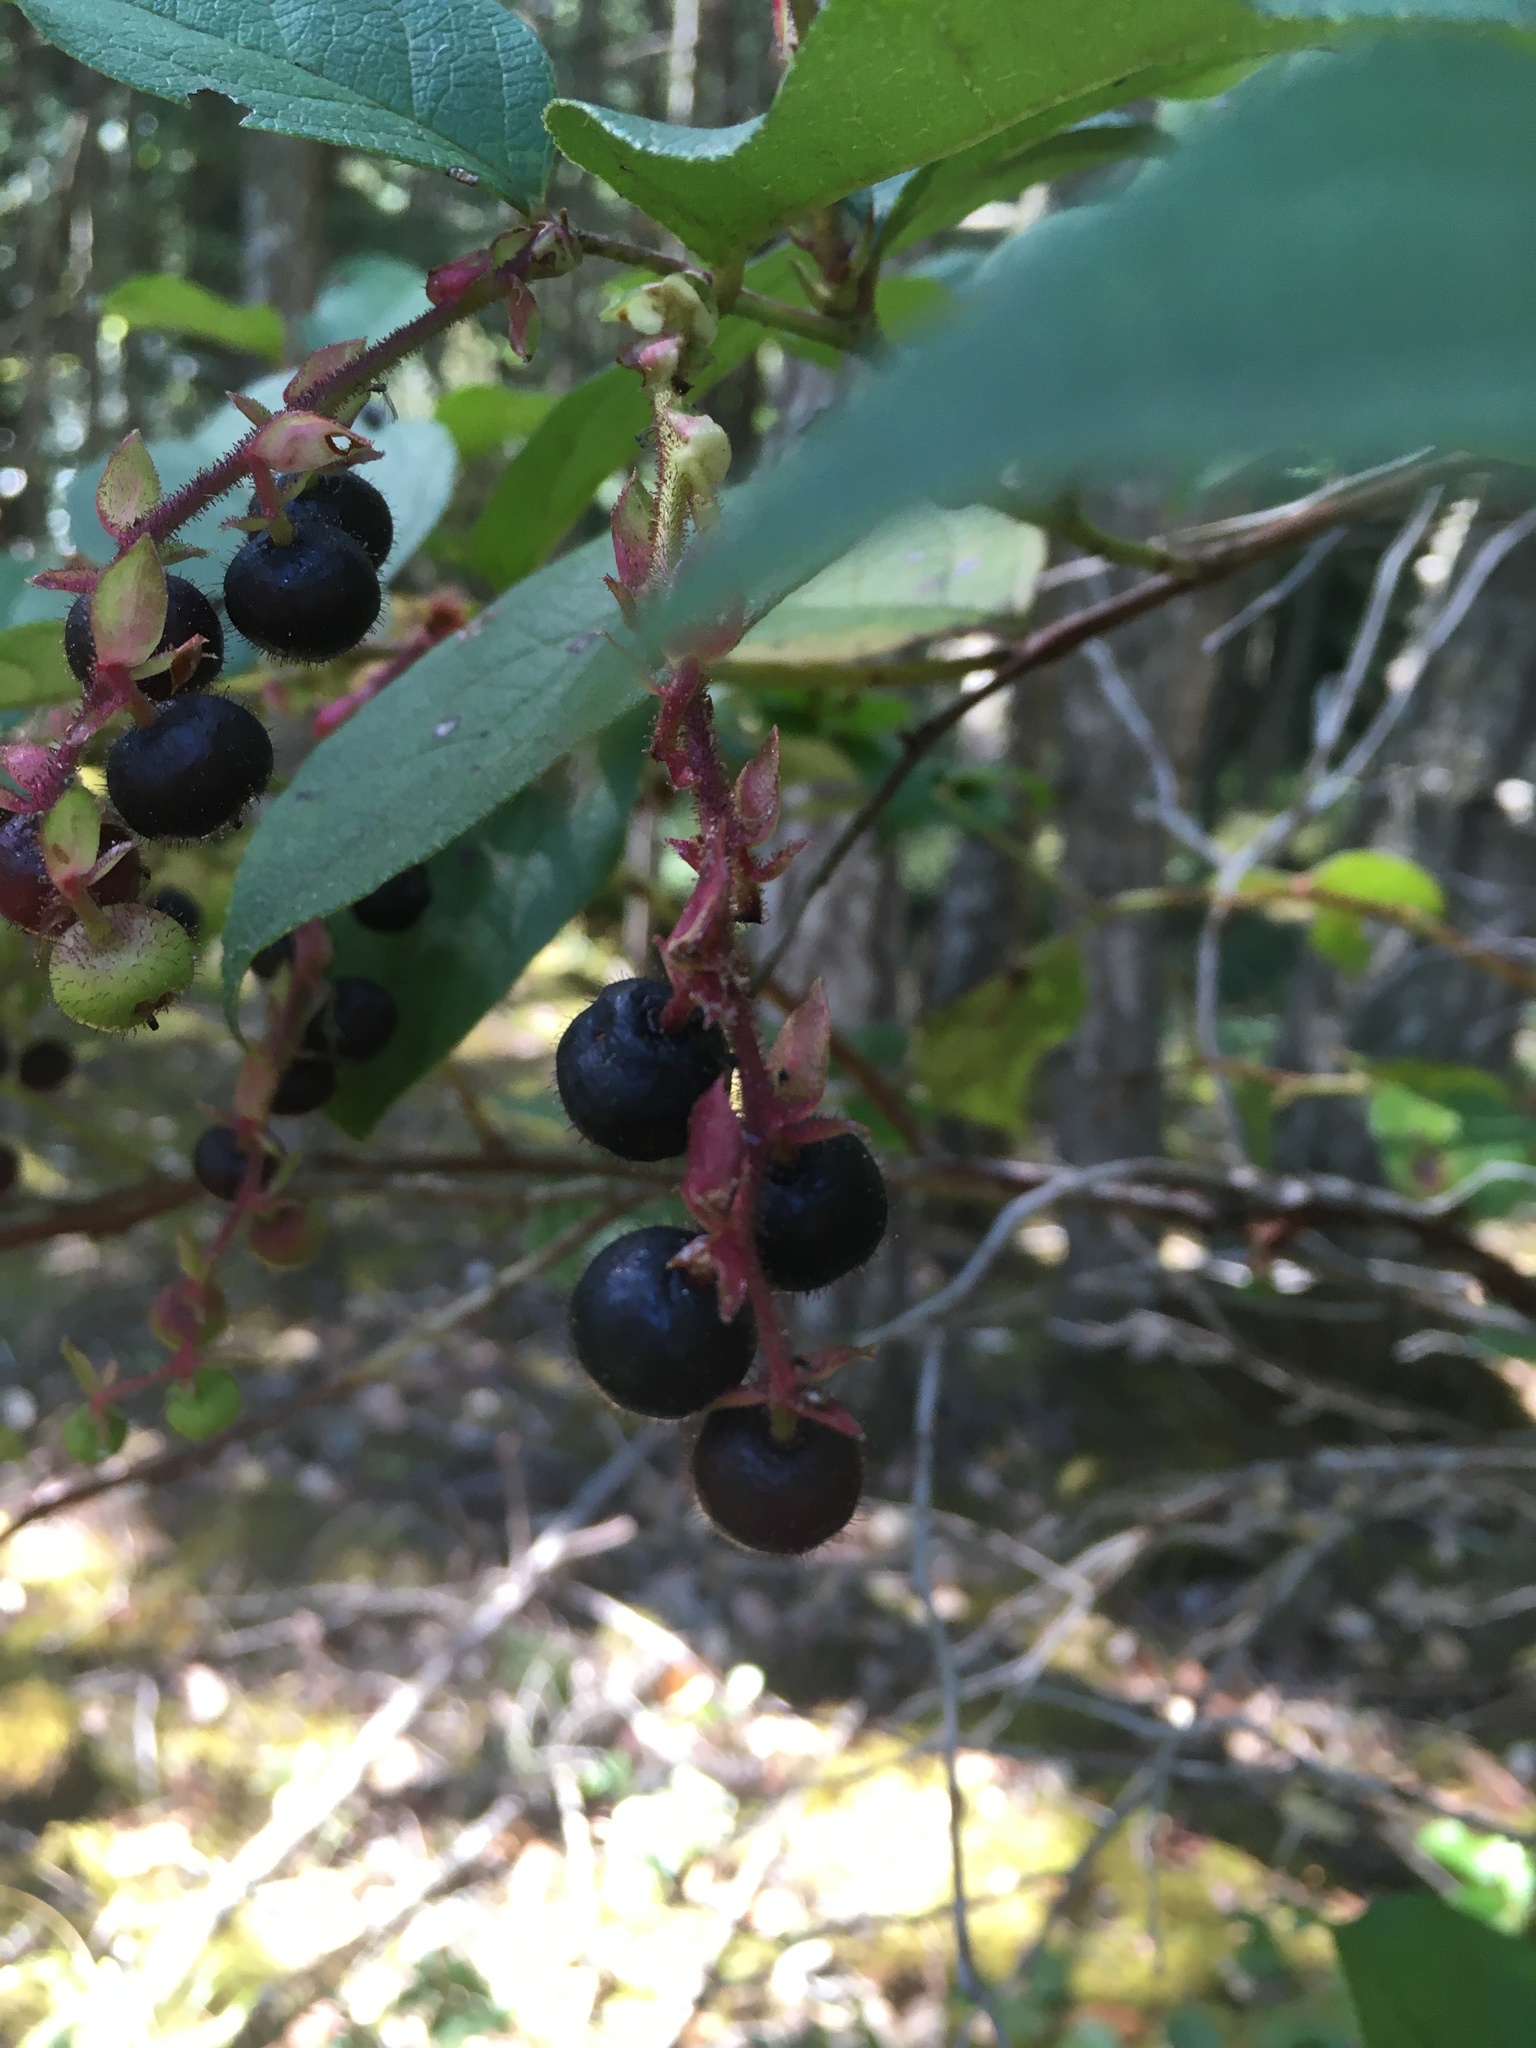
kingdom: Plantae
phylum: Tracheophyta
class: Magnoliopsida
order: Ericales
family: Ericaceae
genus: Gaultheria
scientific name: Gaultheria shallon
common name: Shallon
